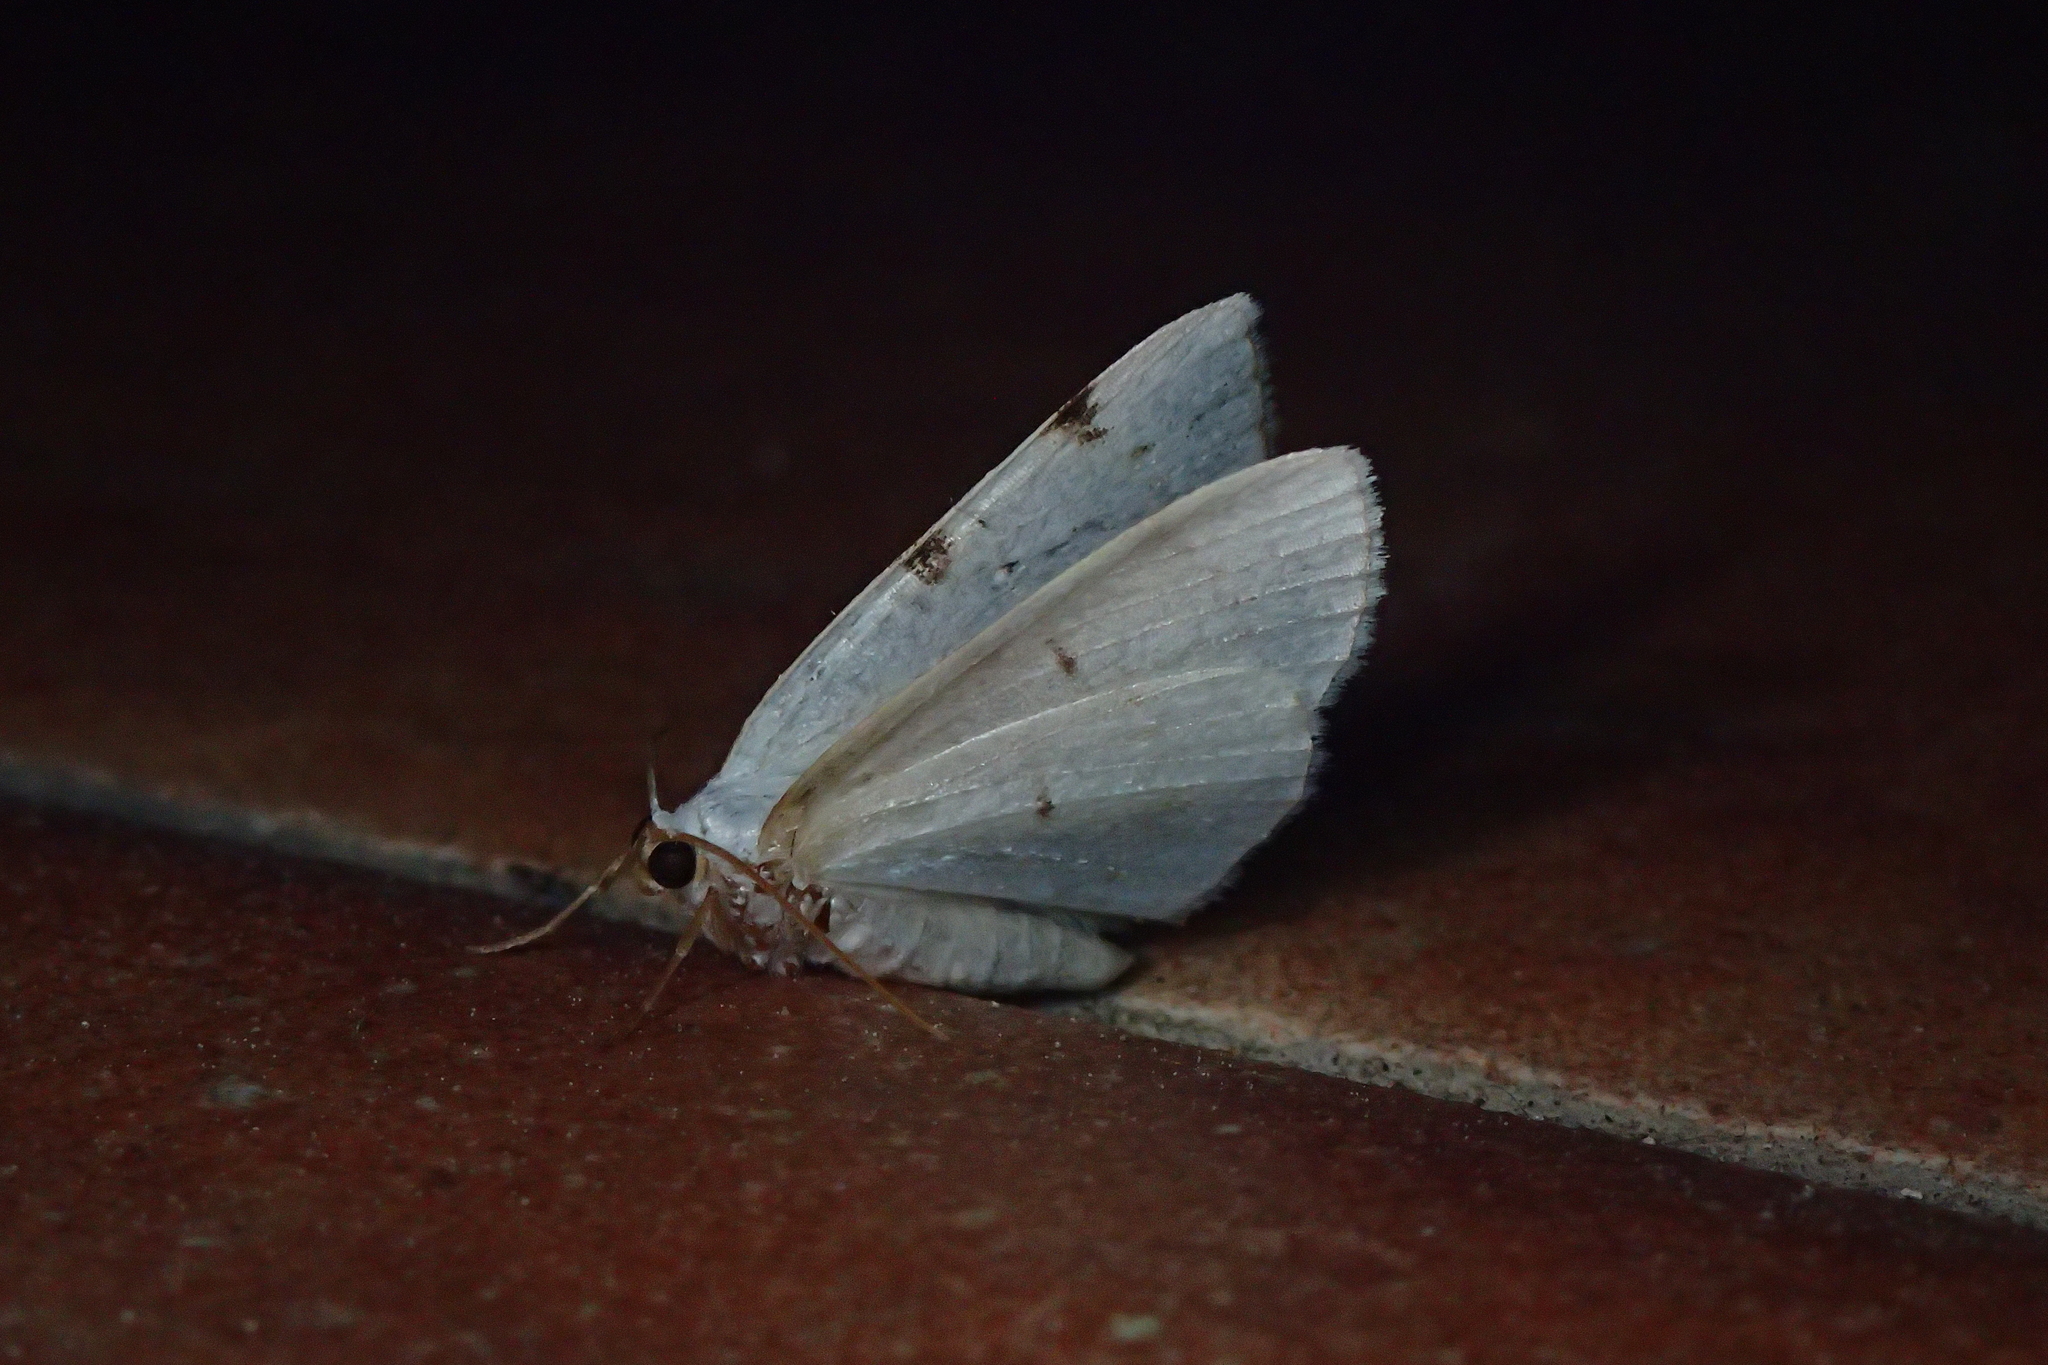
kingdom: Animalia
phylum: Arthropoda
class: Insecta
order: Lepidoptera
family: Geometridae
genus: Lomographa
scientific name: Lomographa bimaculata
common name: White-pinion spotted
